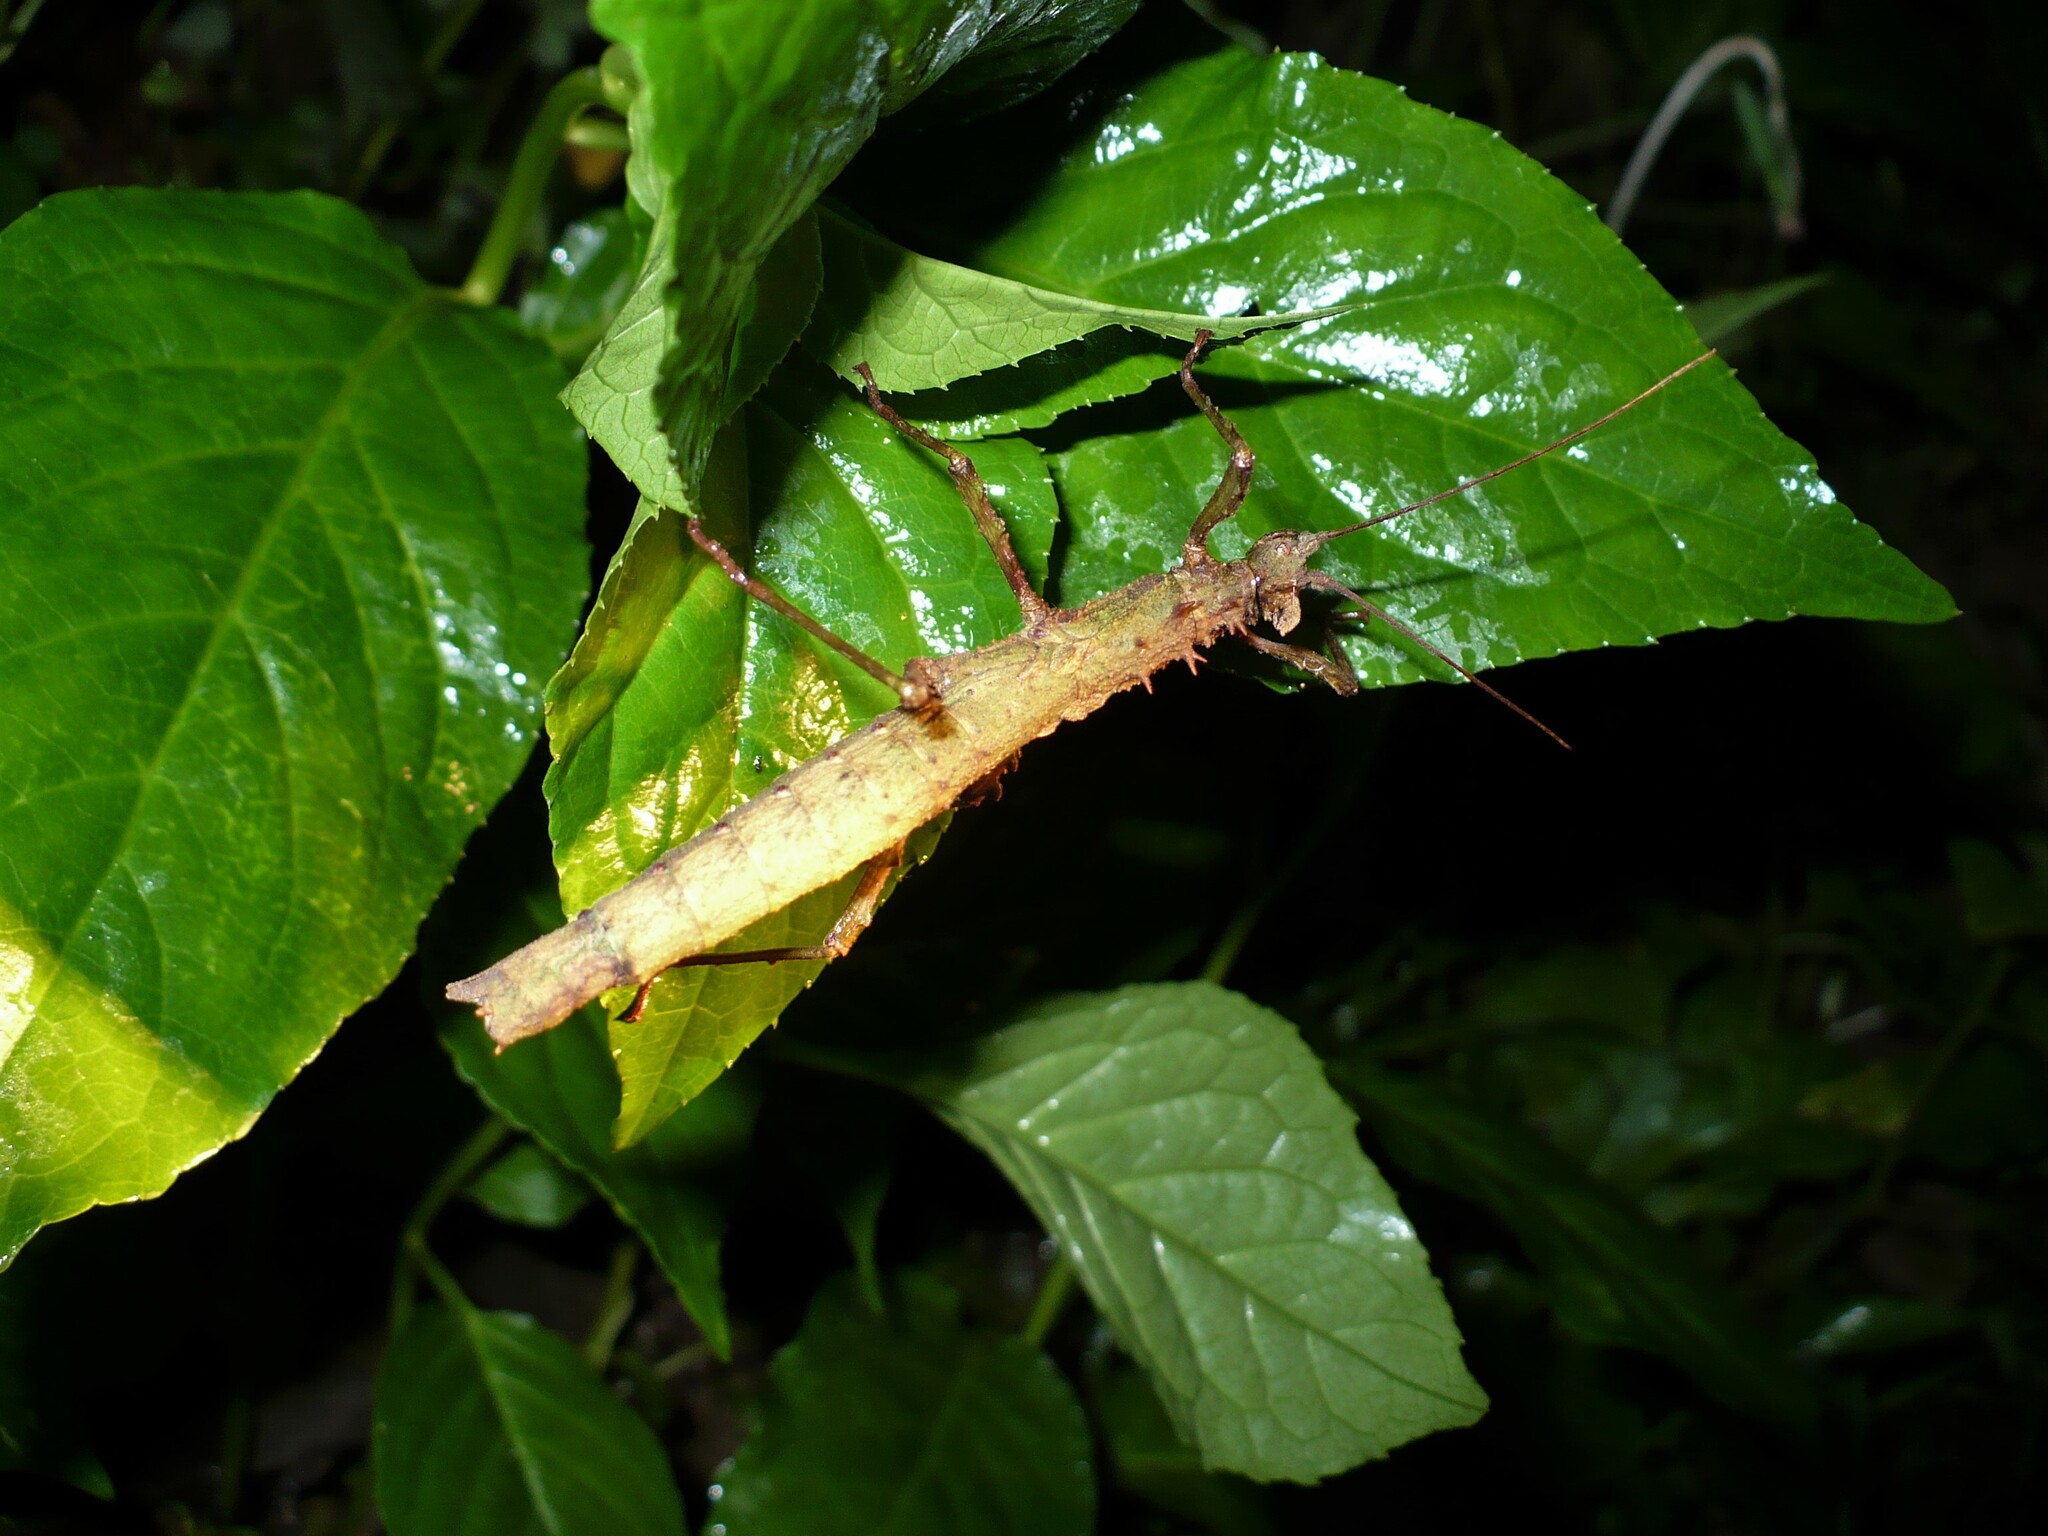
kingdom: Animalia
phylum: Arthropoda
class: Insecta
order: Phasmida
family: Pseudophasmatidae
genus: Creoxylus
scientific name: Creoxylus spinosus
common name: Trinidad log stick insect
